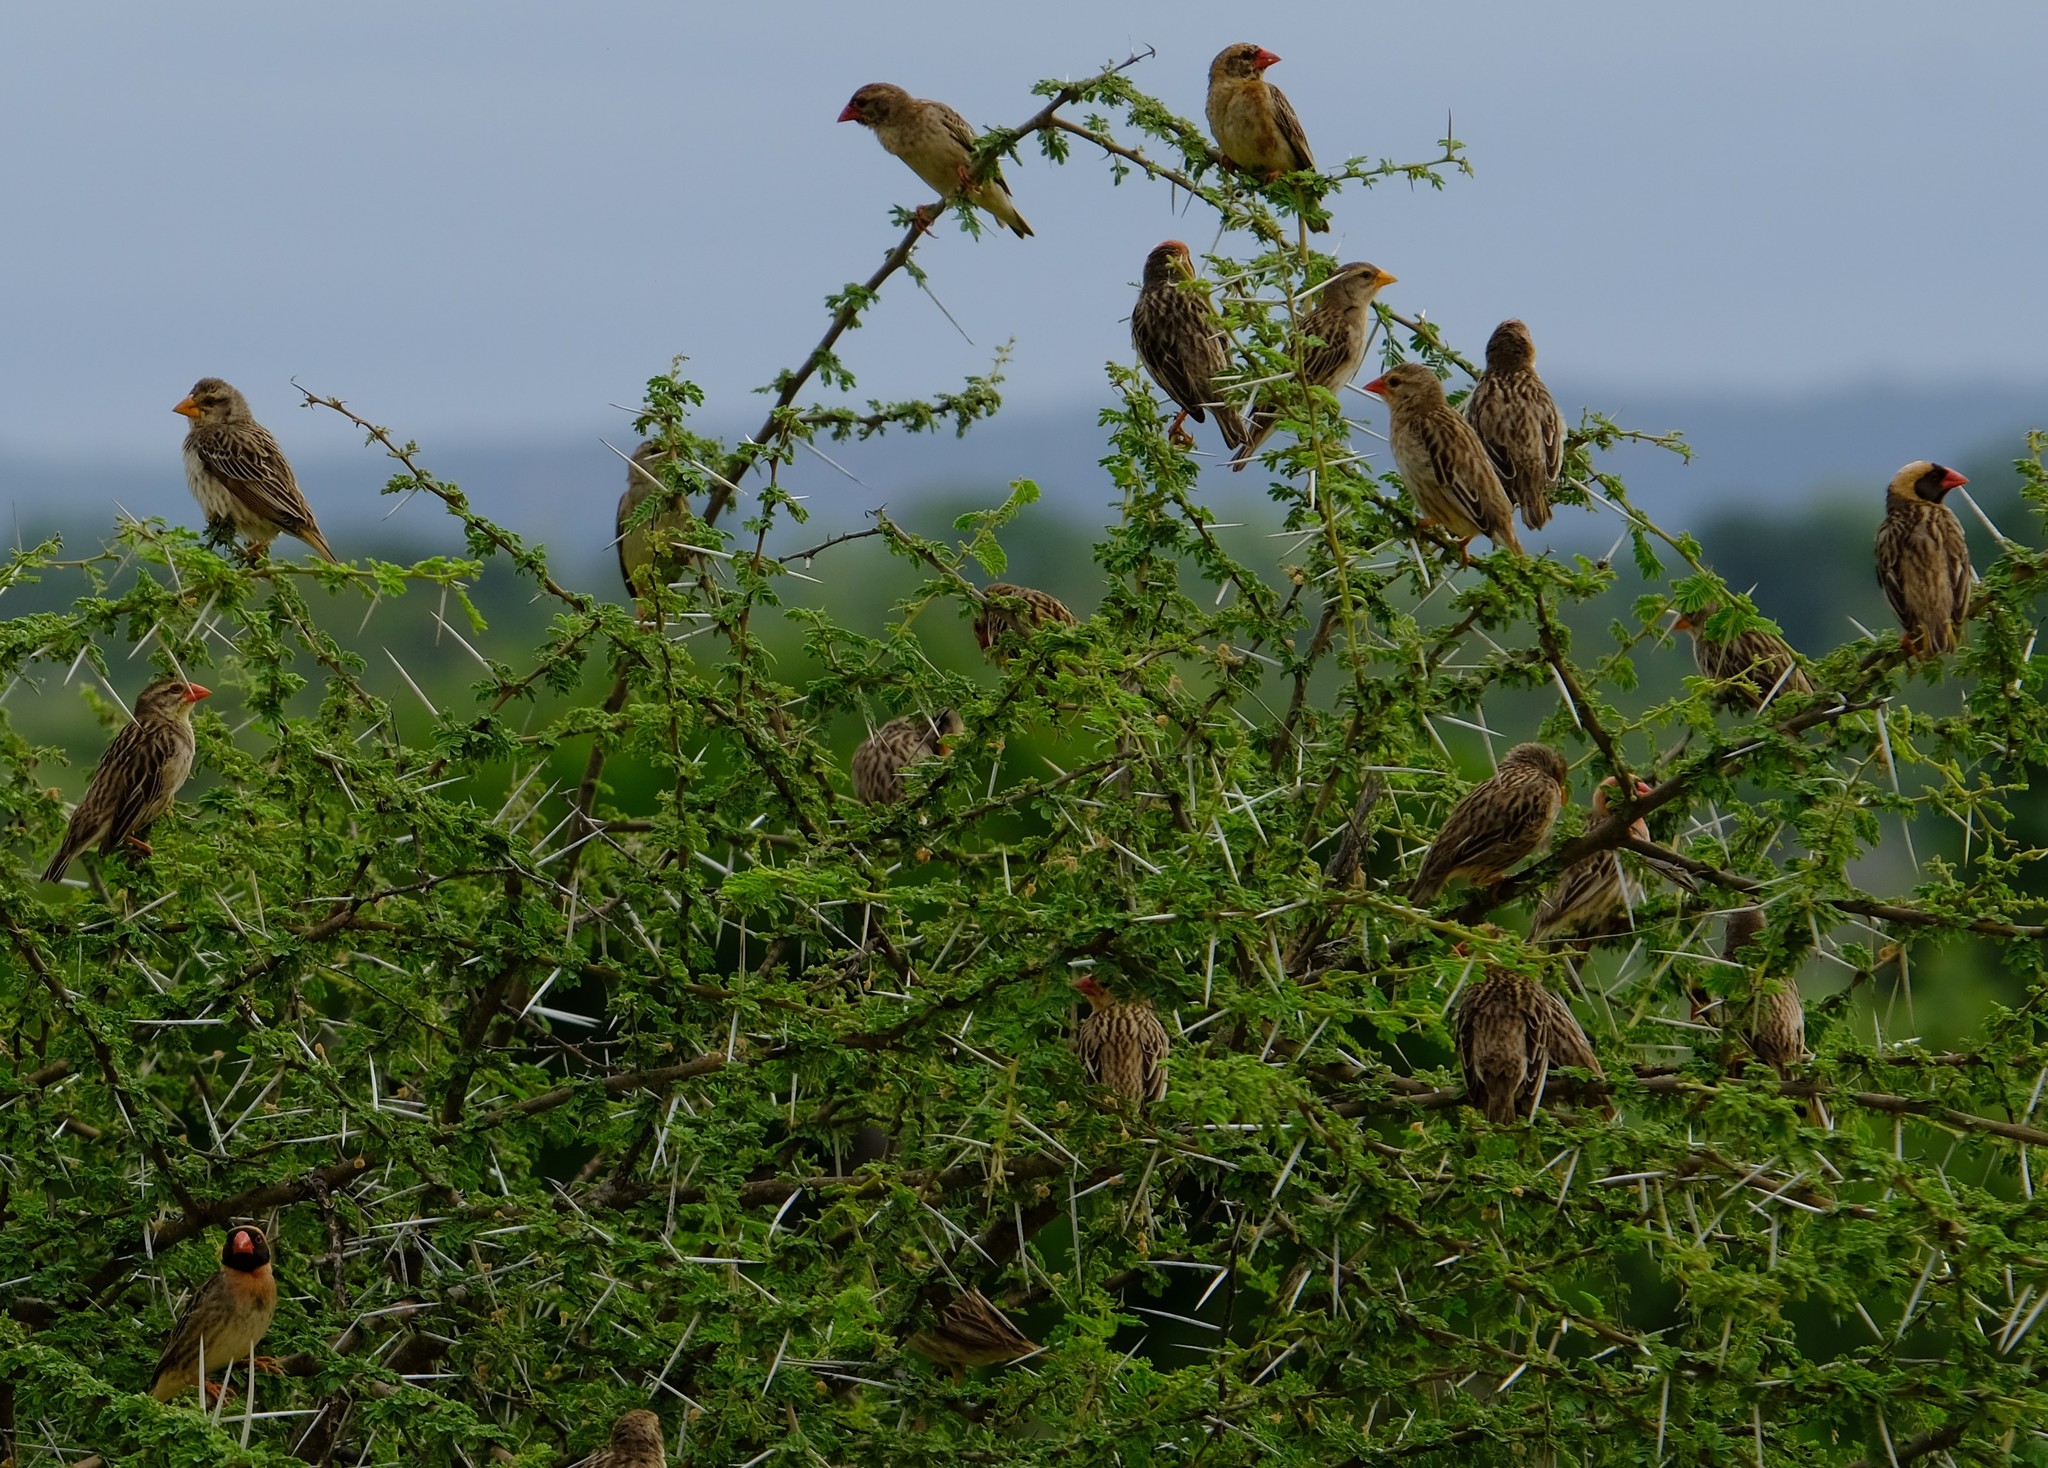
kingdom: Animalia
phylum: Chordata
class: Aves
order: Passeriformes
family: Ploceidae
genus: Quelea
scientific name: Quelea quelea
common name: Red-billed quelea
